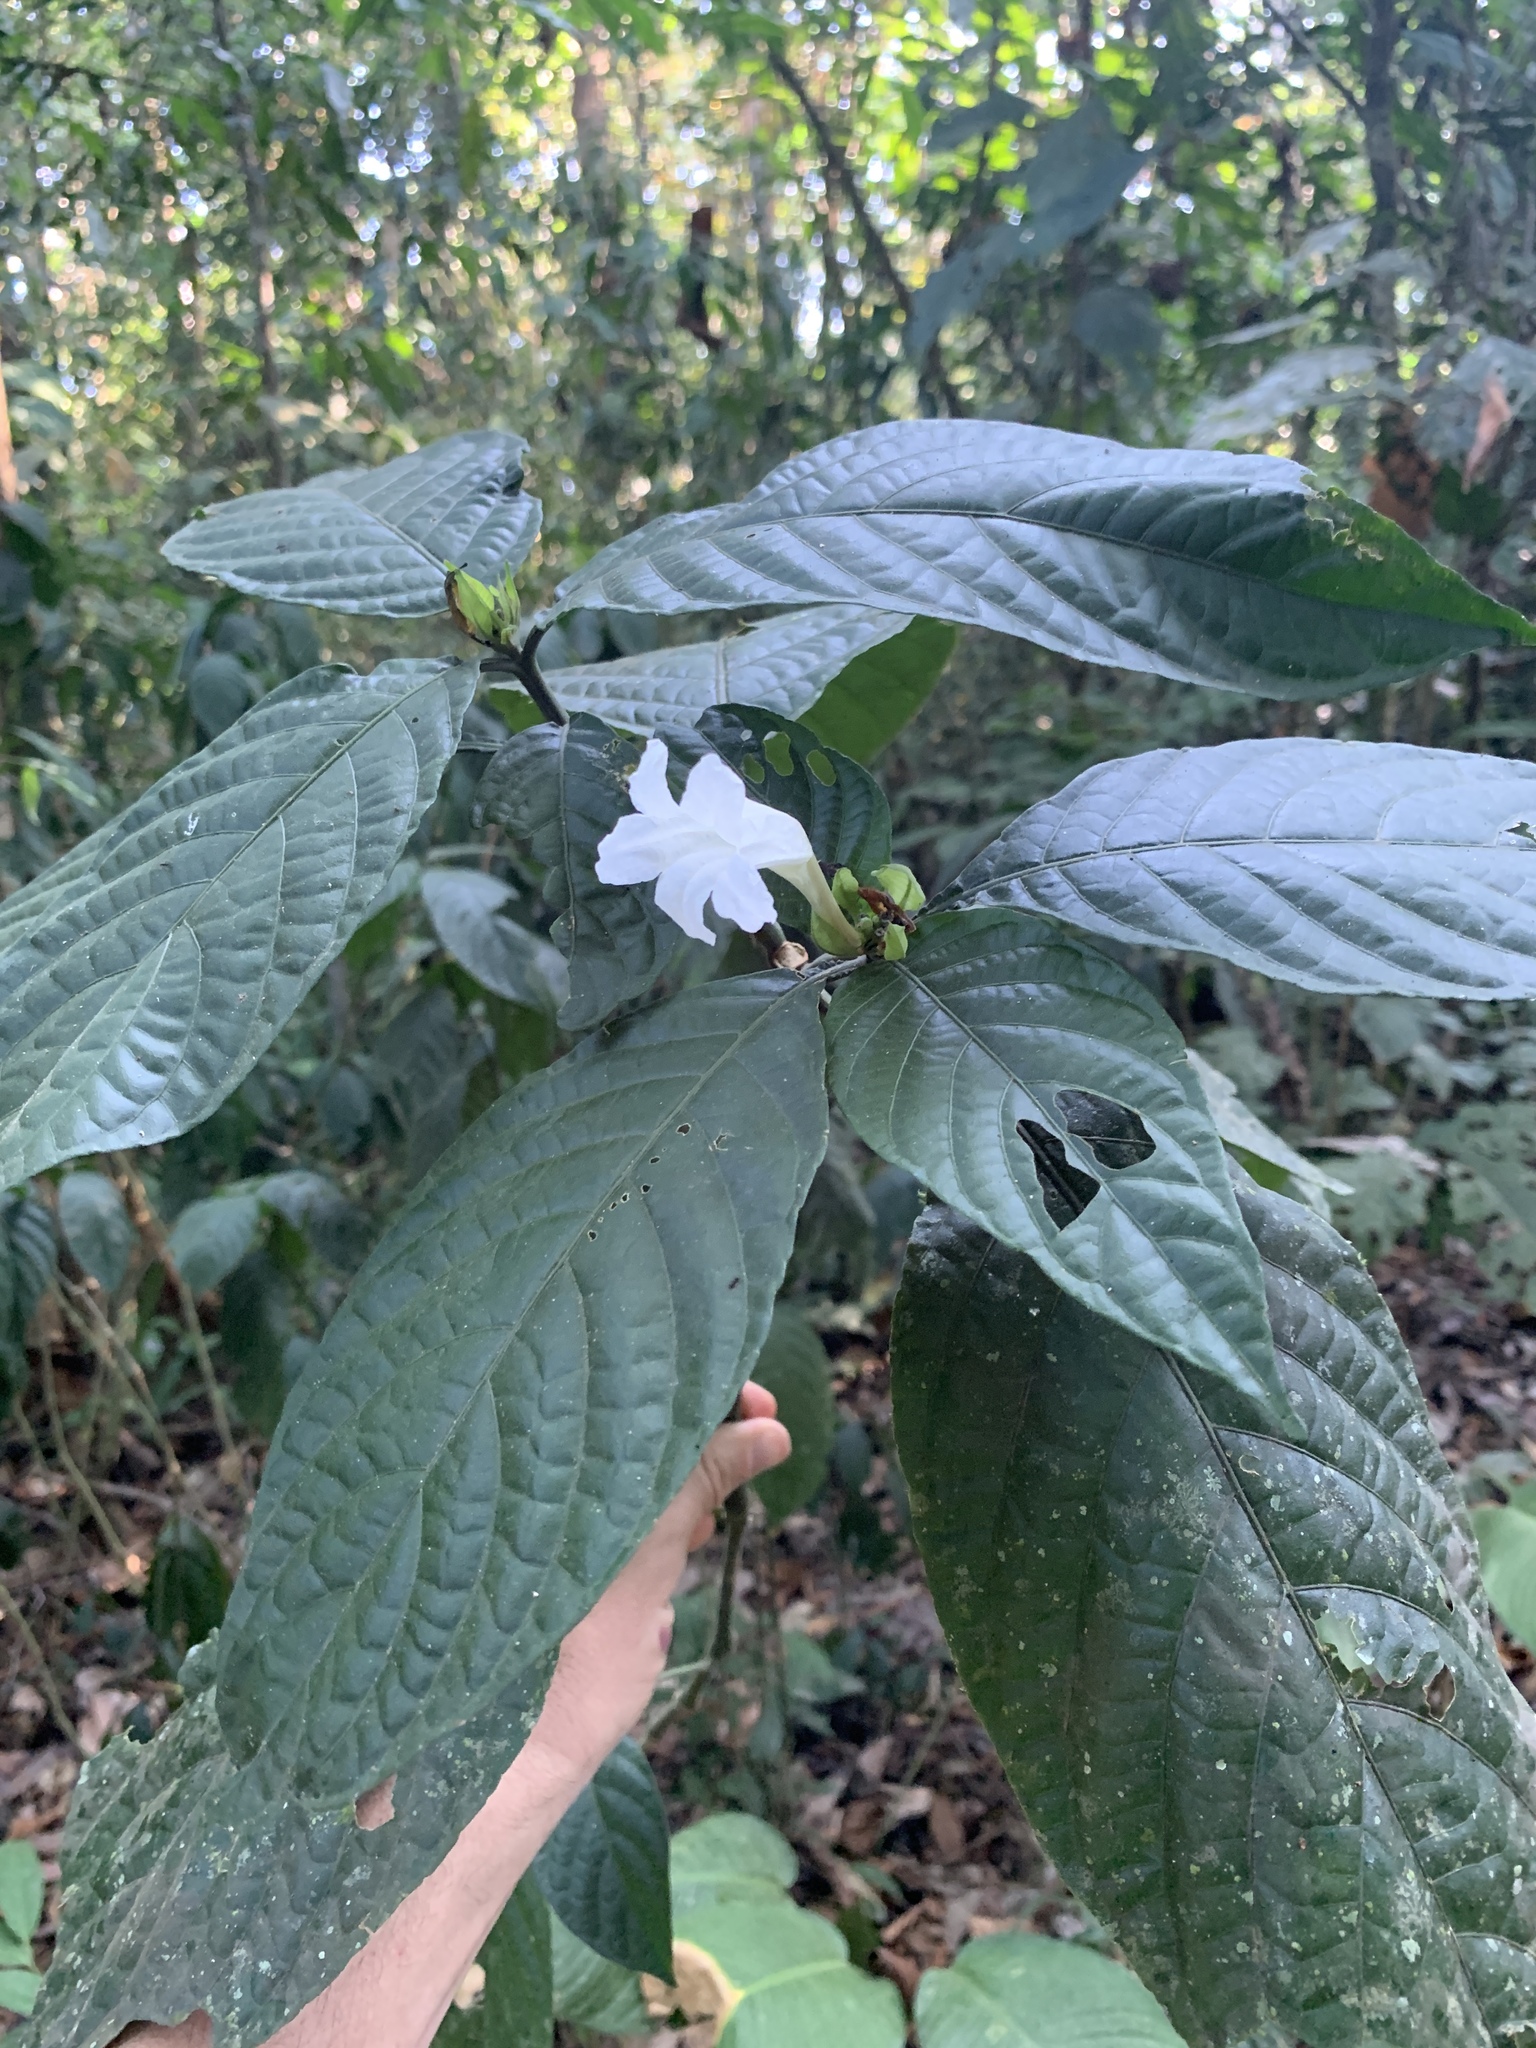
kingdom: Plantae
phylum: Tracheophyta
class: Magnoliopsida
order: Lamiales
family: Acanthaceae
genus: Ruellia
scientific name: Ruellia tubiflora
